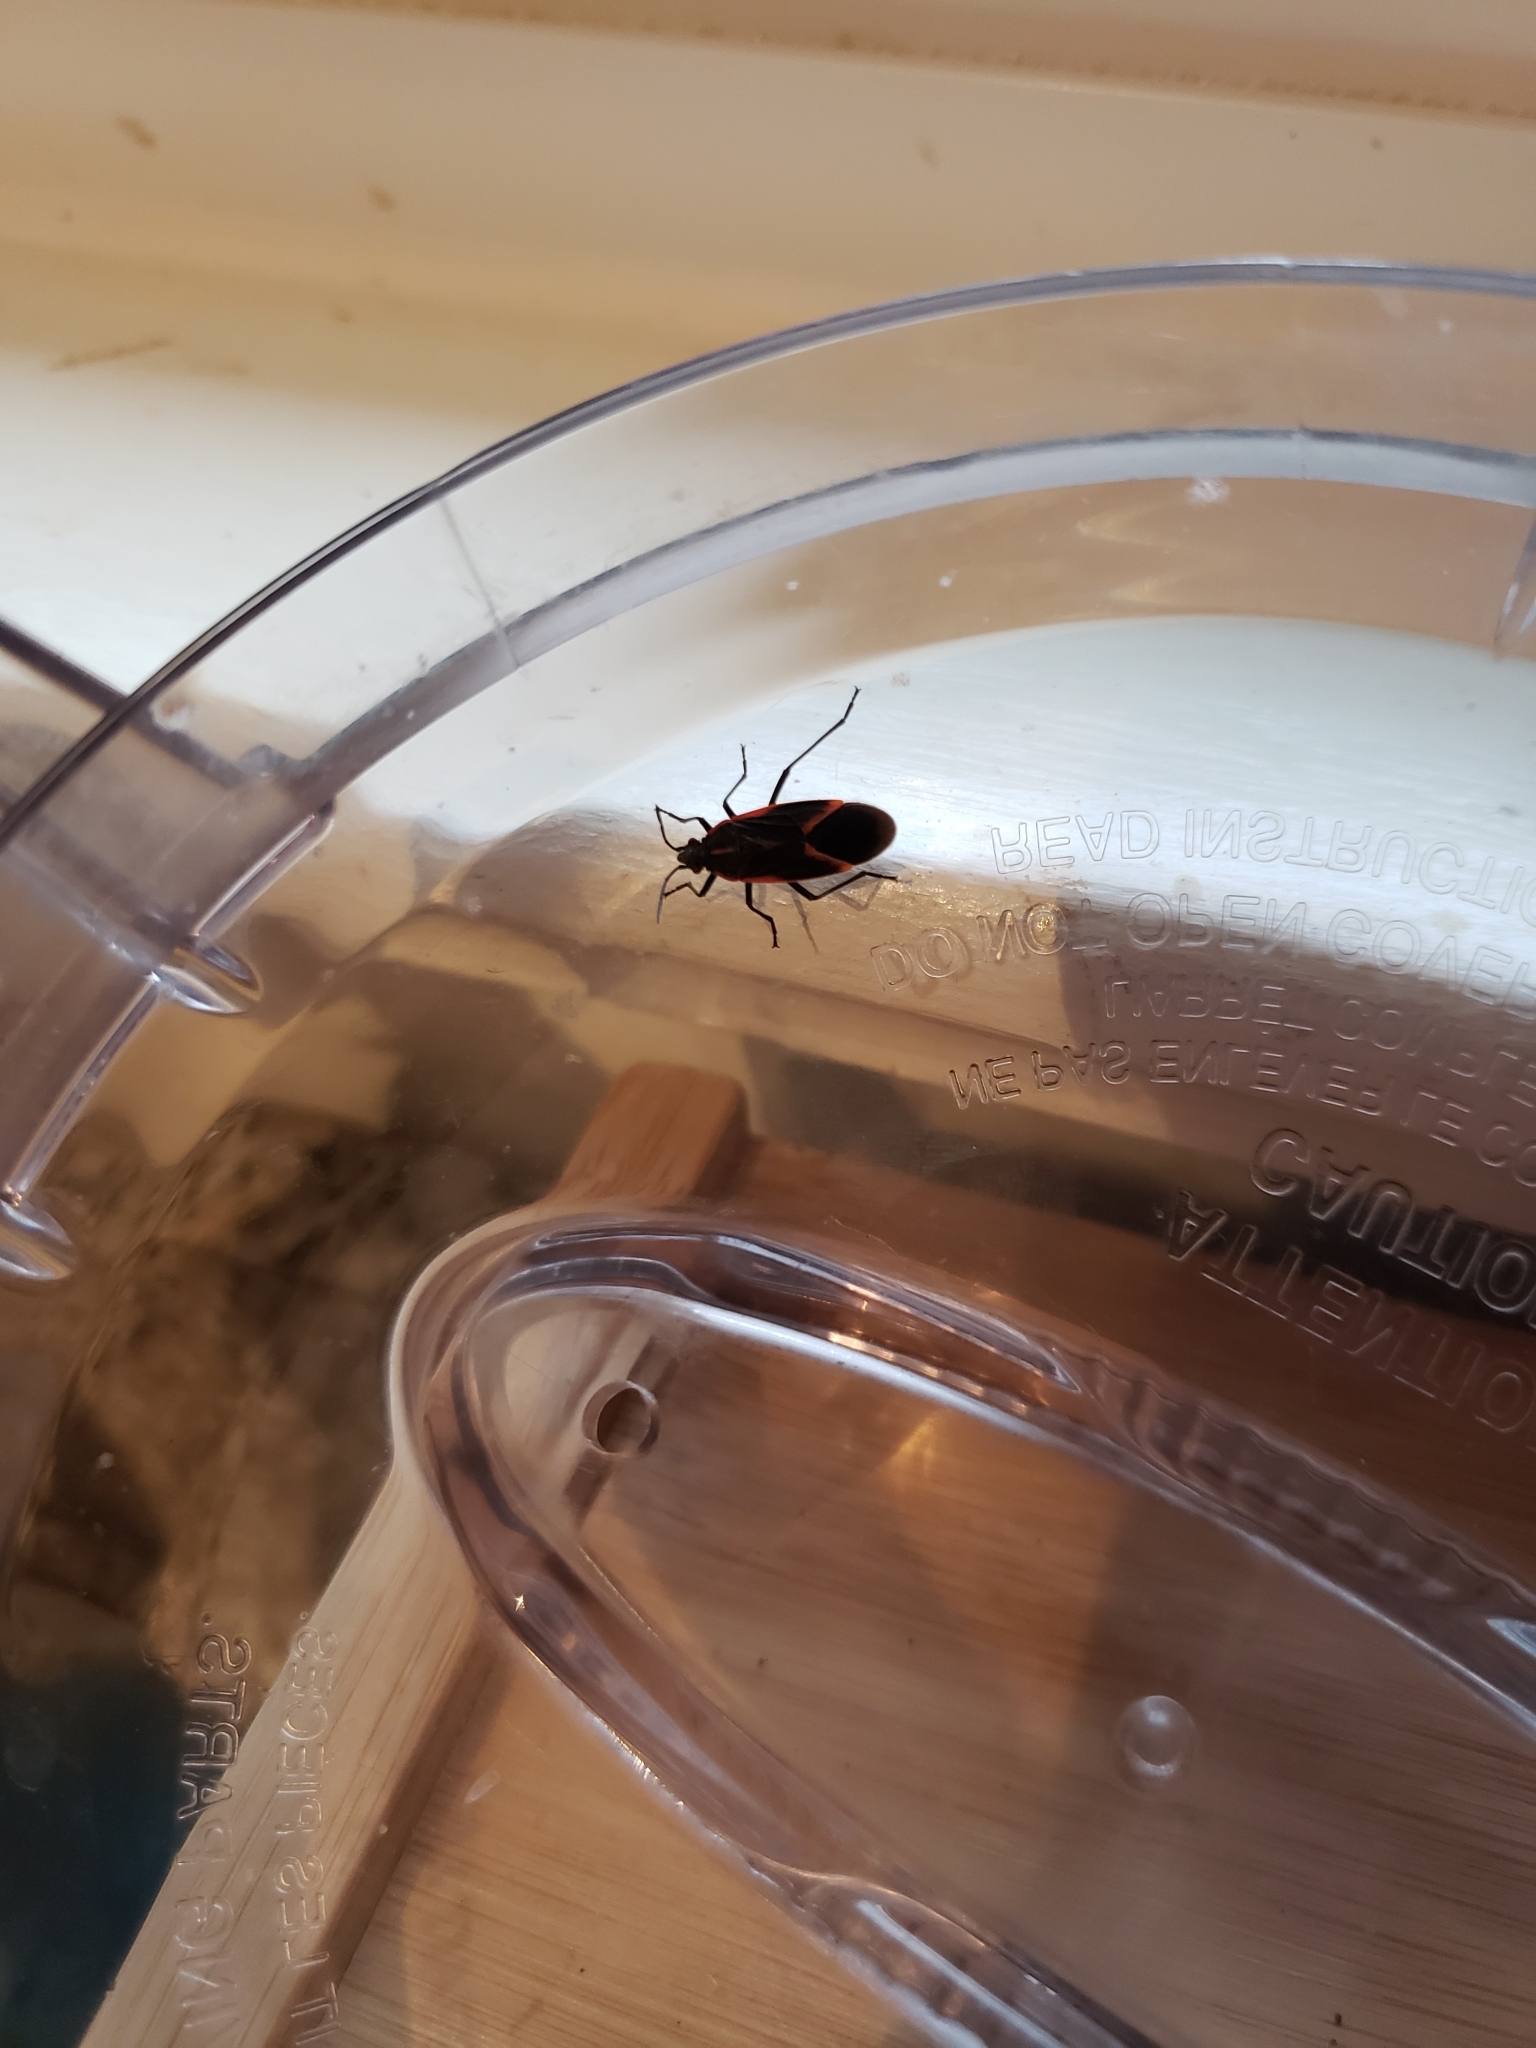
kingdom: Animalia
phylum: Arthropoda
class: Insecta
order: Hemiptera
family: Rhopalidae
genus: Boisea
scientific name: Boisea trivittata
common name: Boxelder bug
